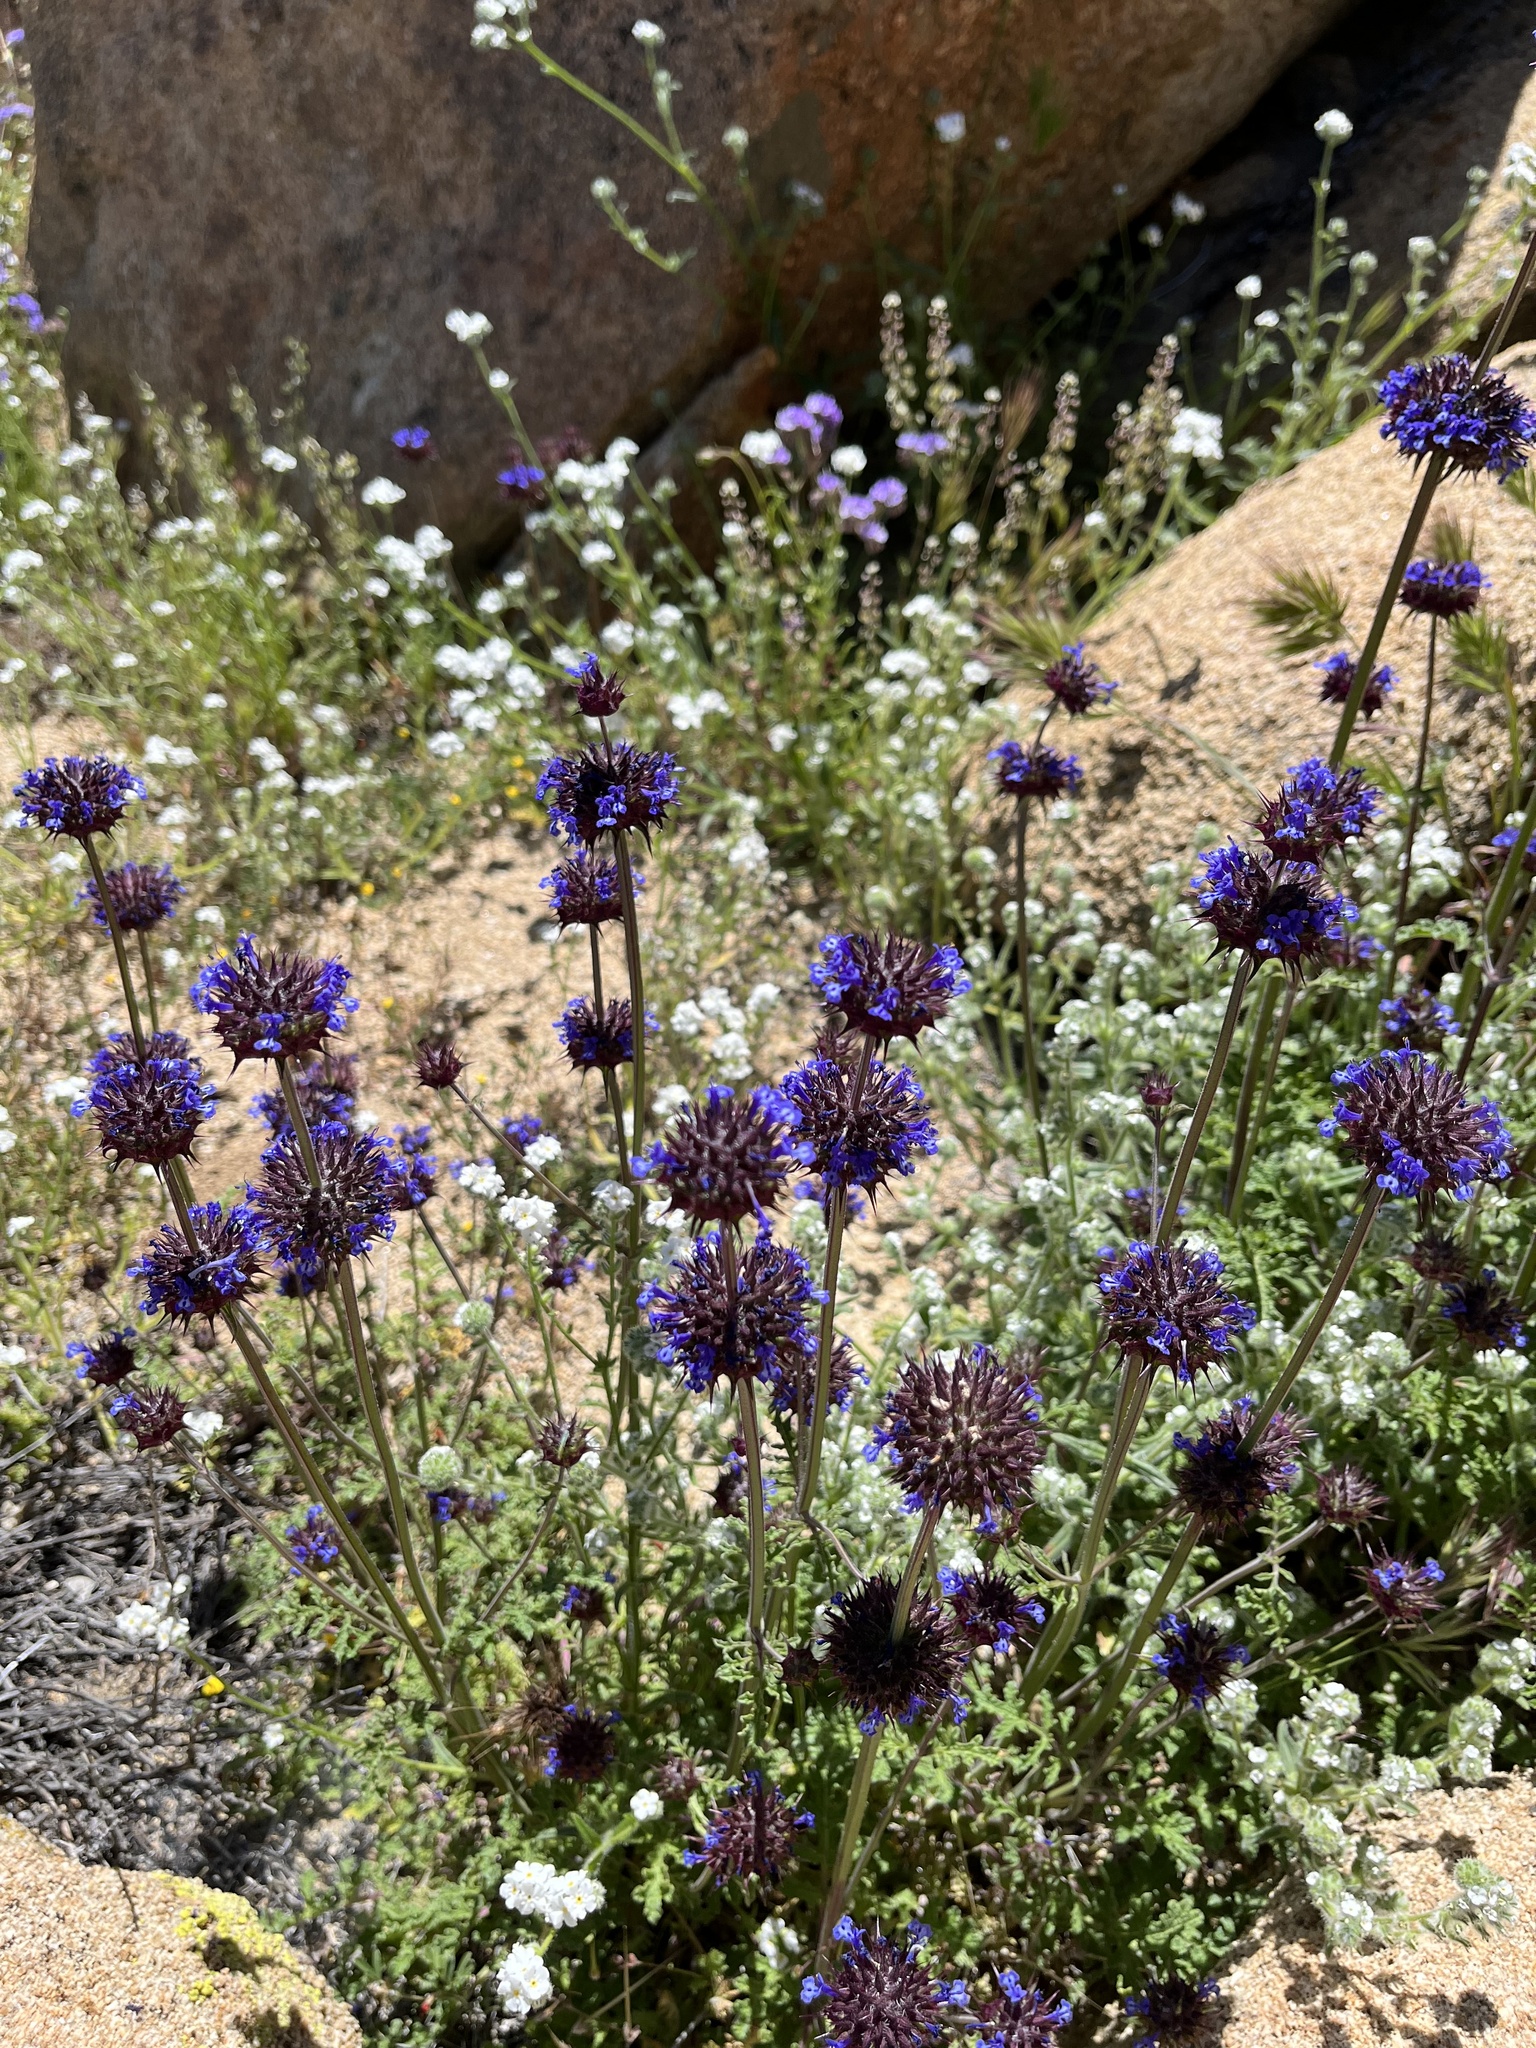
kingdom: Plantae
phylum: Tracheophyta
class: Magnoliopsida
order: Lamiales
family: Lamiaceae
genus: Salvia
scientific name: Salvia columbariae
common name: Chia
